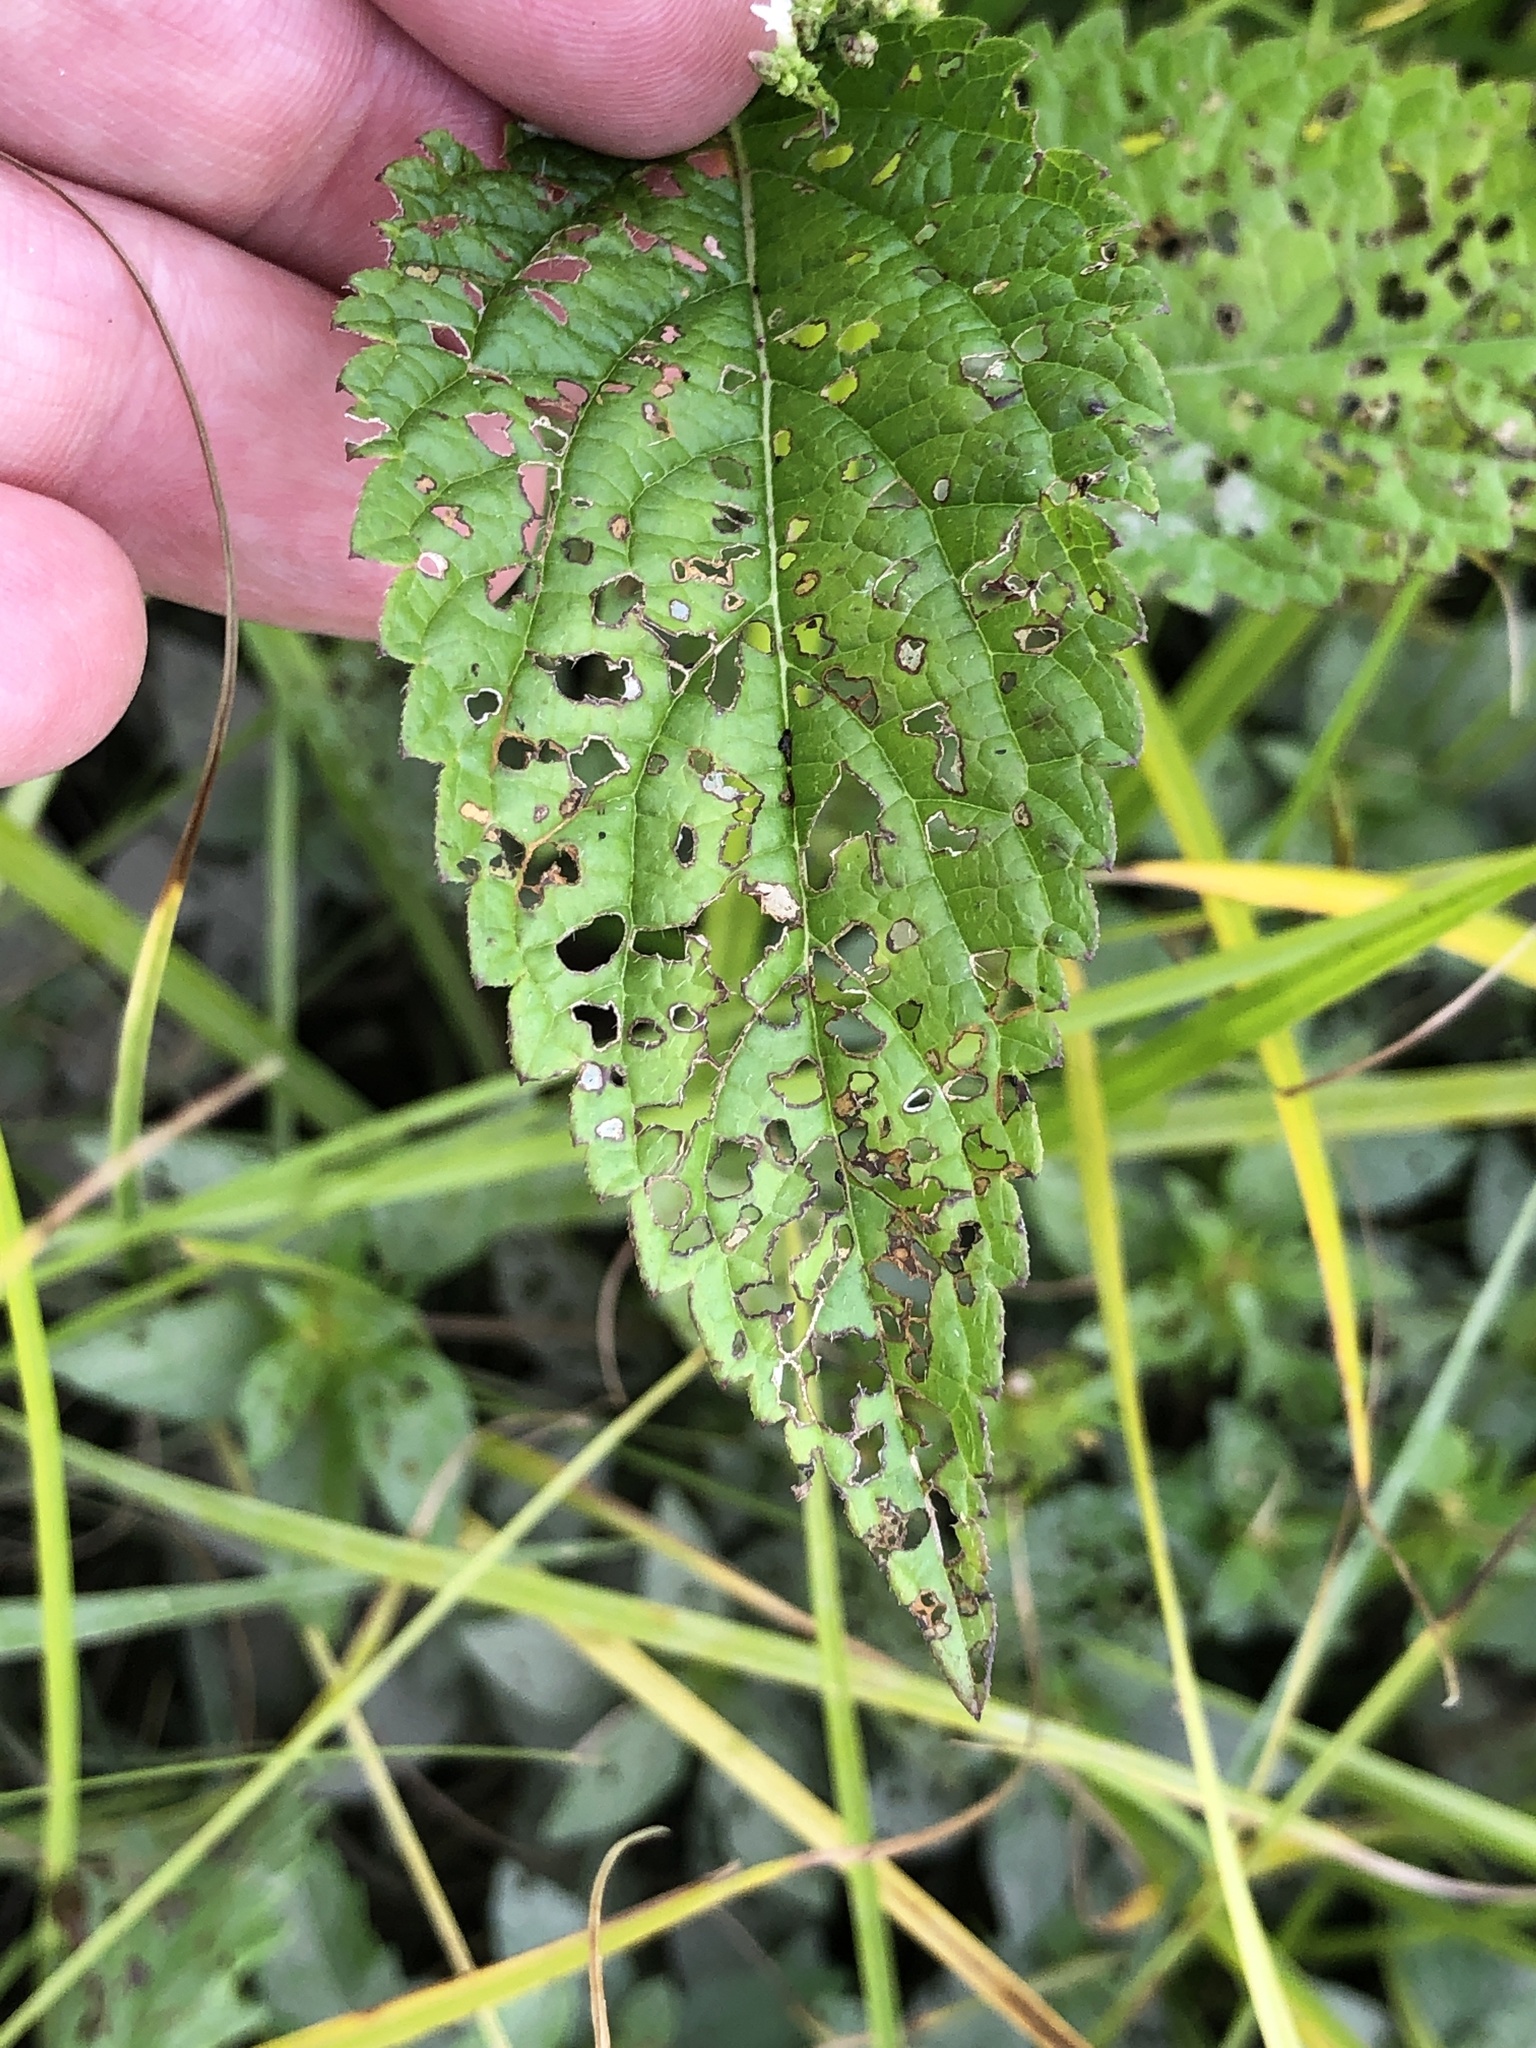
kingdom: Plantae
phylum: Tracheophyta
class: Magnoliopsida
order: Lamiales
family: Verbenaceae
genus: Verbena
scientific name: Verbena urticifolia
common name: Nettle-leaved vervain
